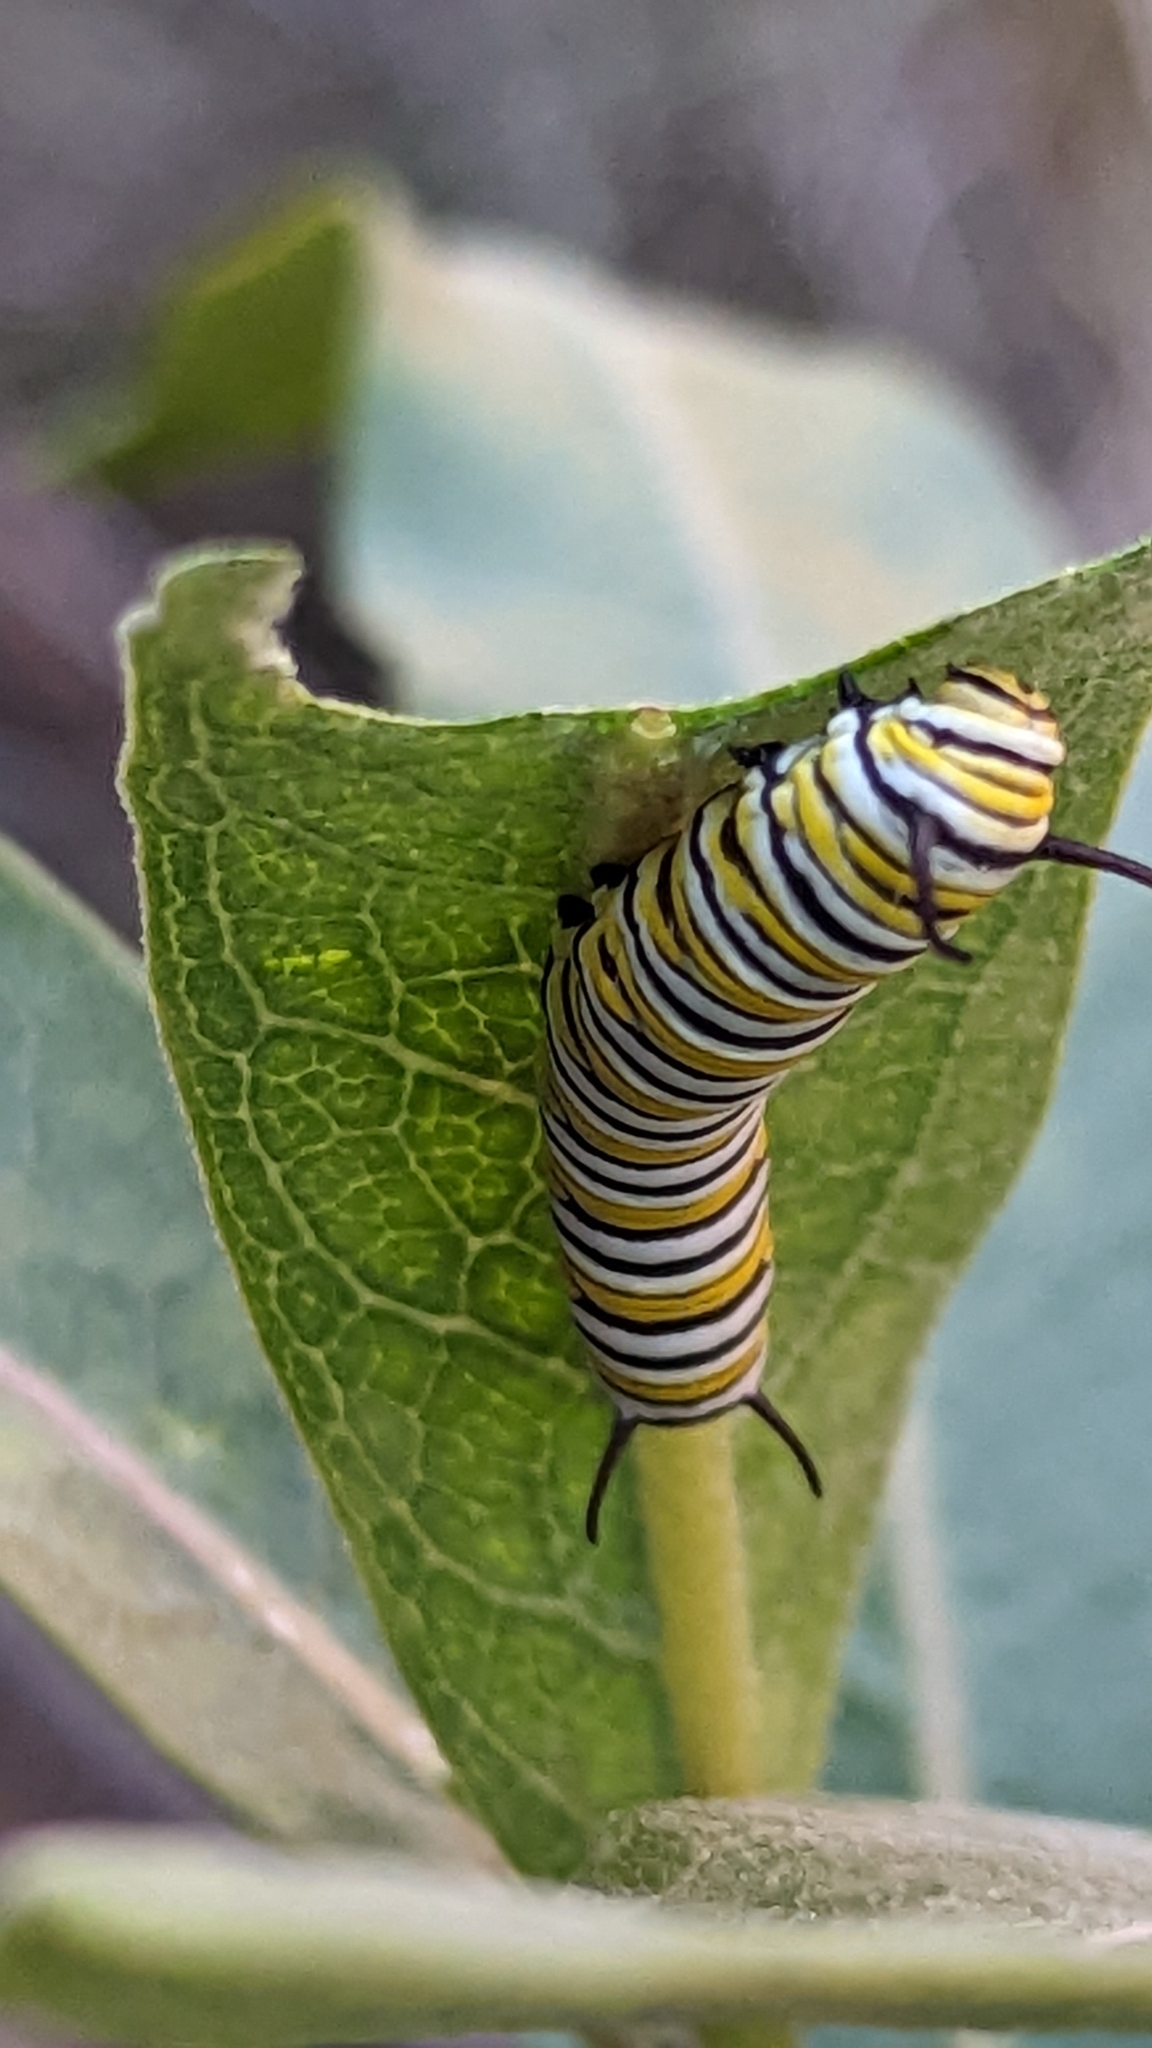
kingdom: Animalia
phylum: Arthropoda
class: Insecta
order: Lepidoptera
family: Nymphalidae
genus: Danaus
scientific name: Danaus plexippus
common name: Monarch
